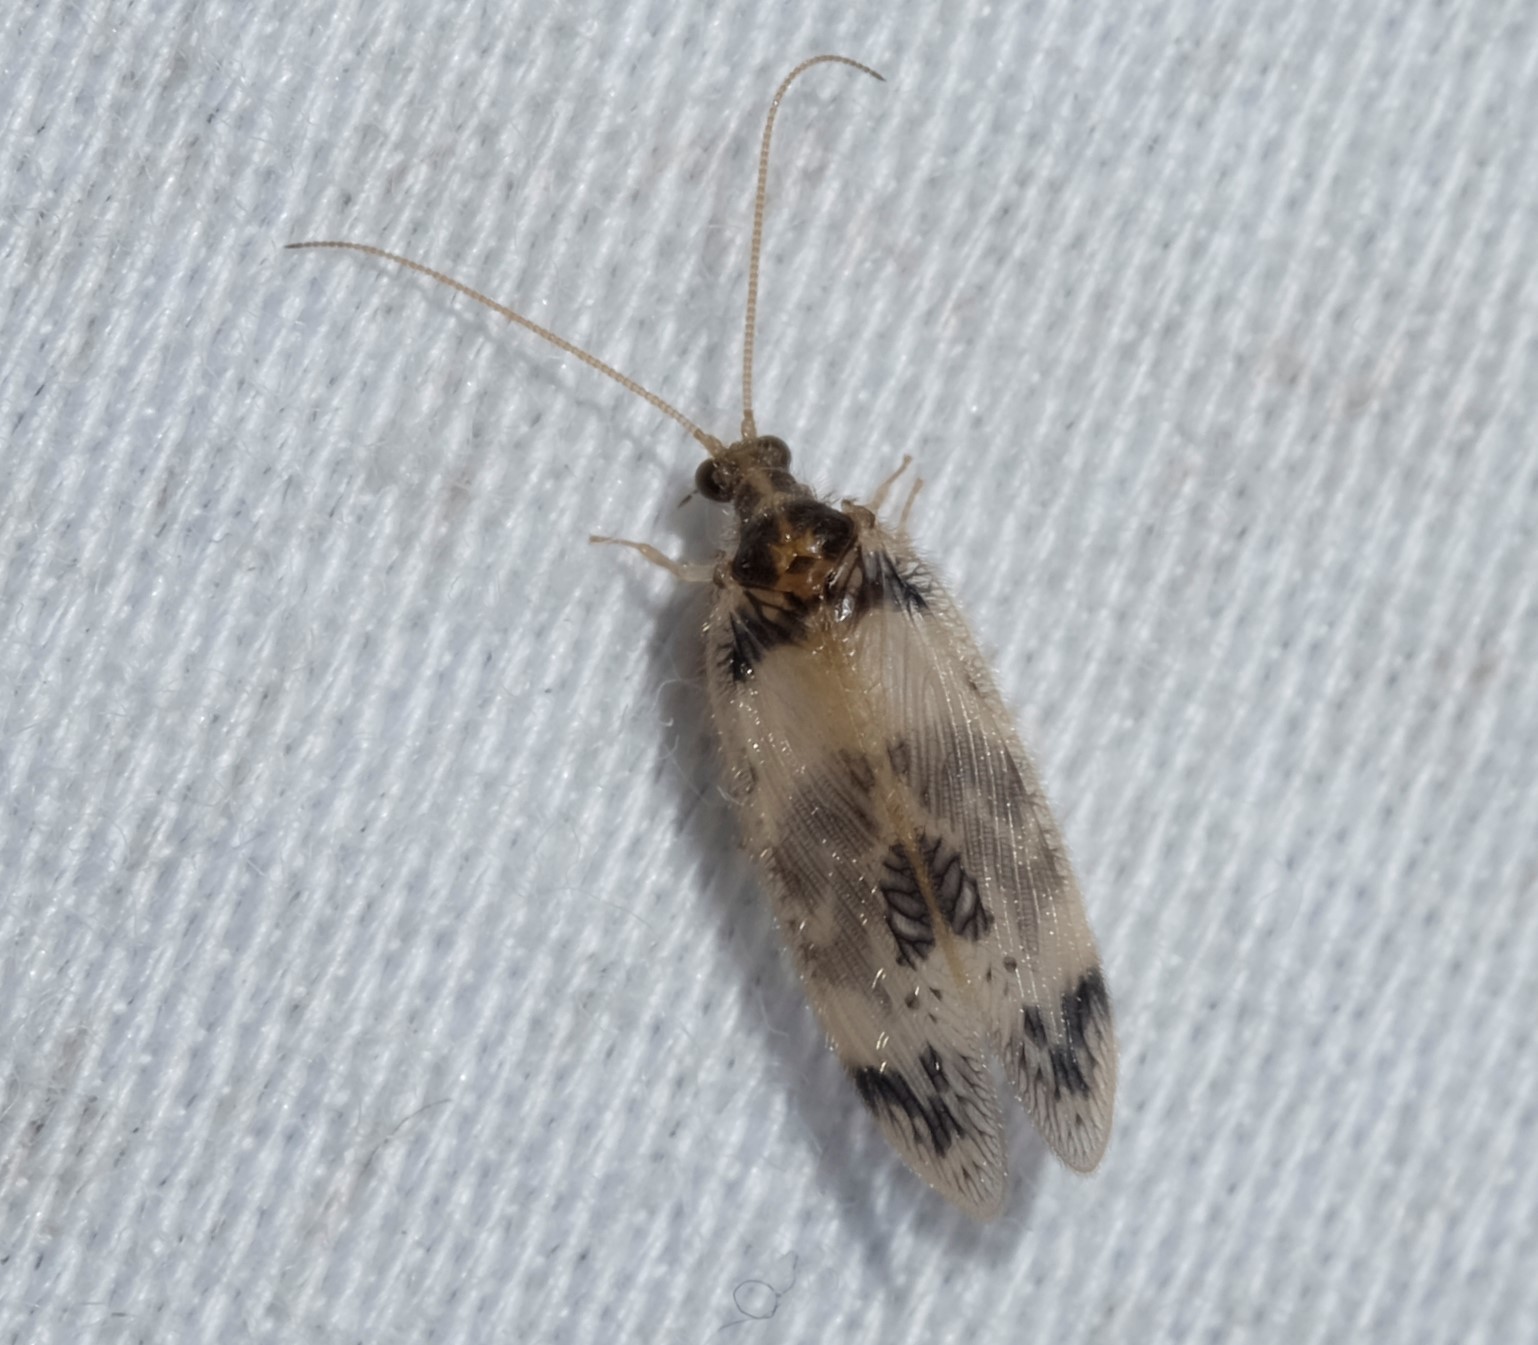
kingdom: Animalia
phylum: Arthropoda
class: Insecta
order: Neuroptera
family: Hemerobiidae
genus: Carobius
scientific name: Carobius pulchellus
